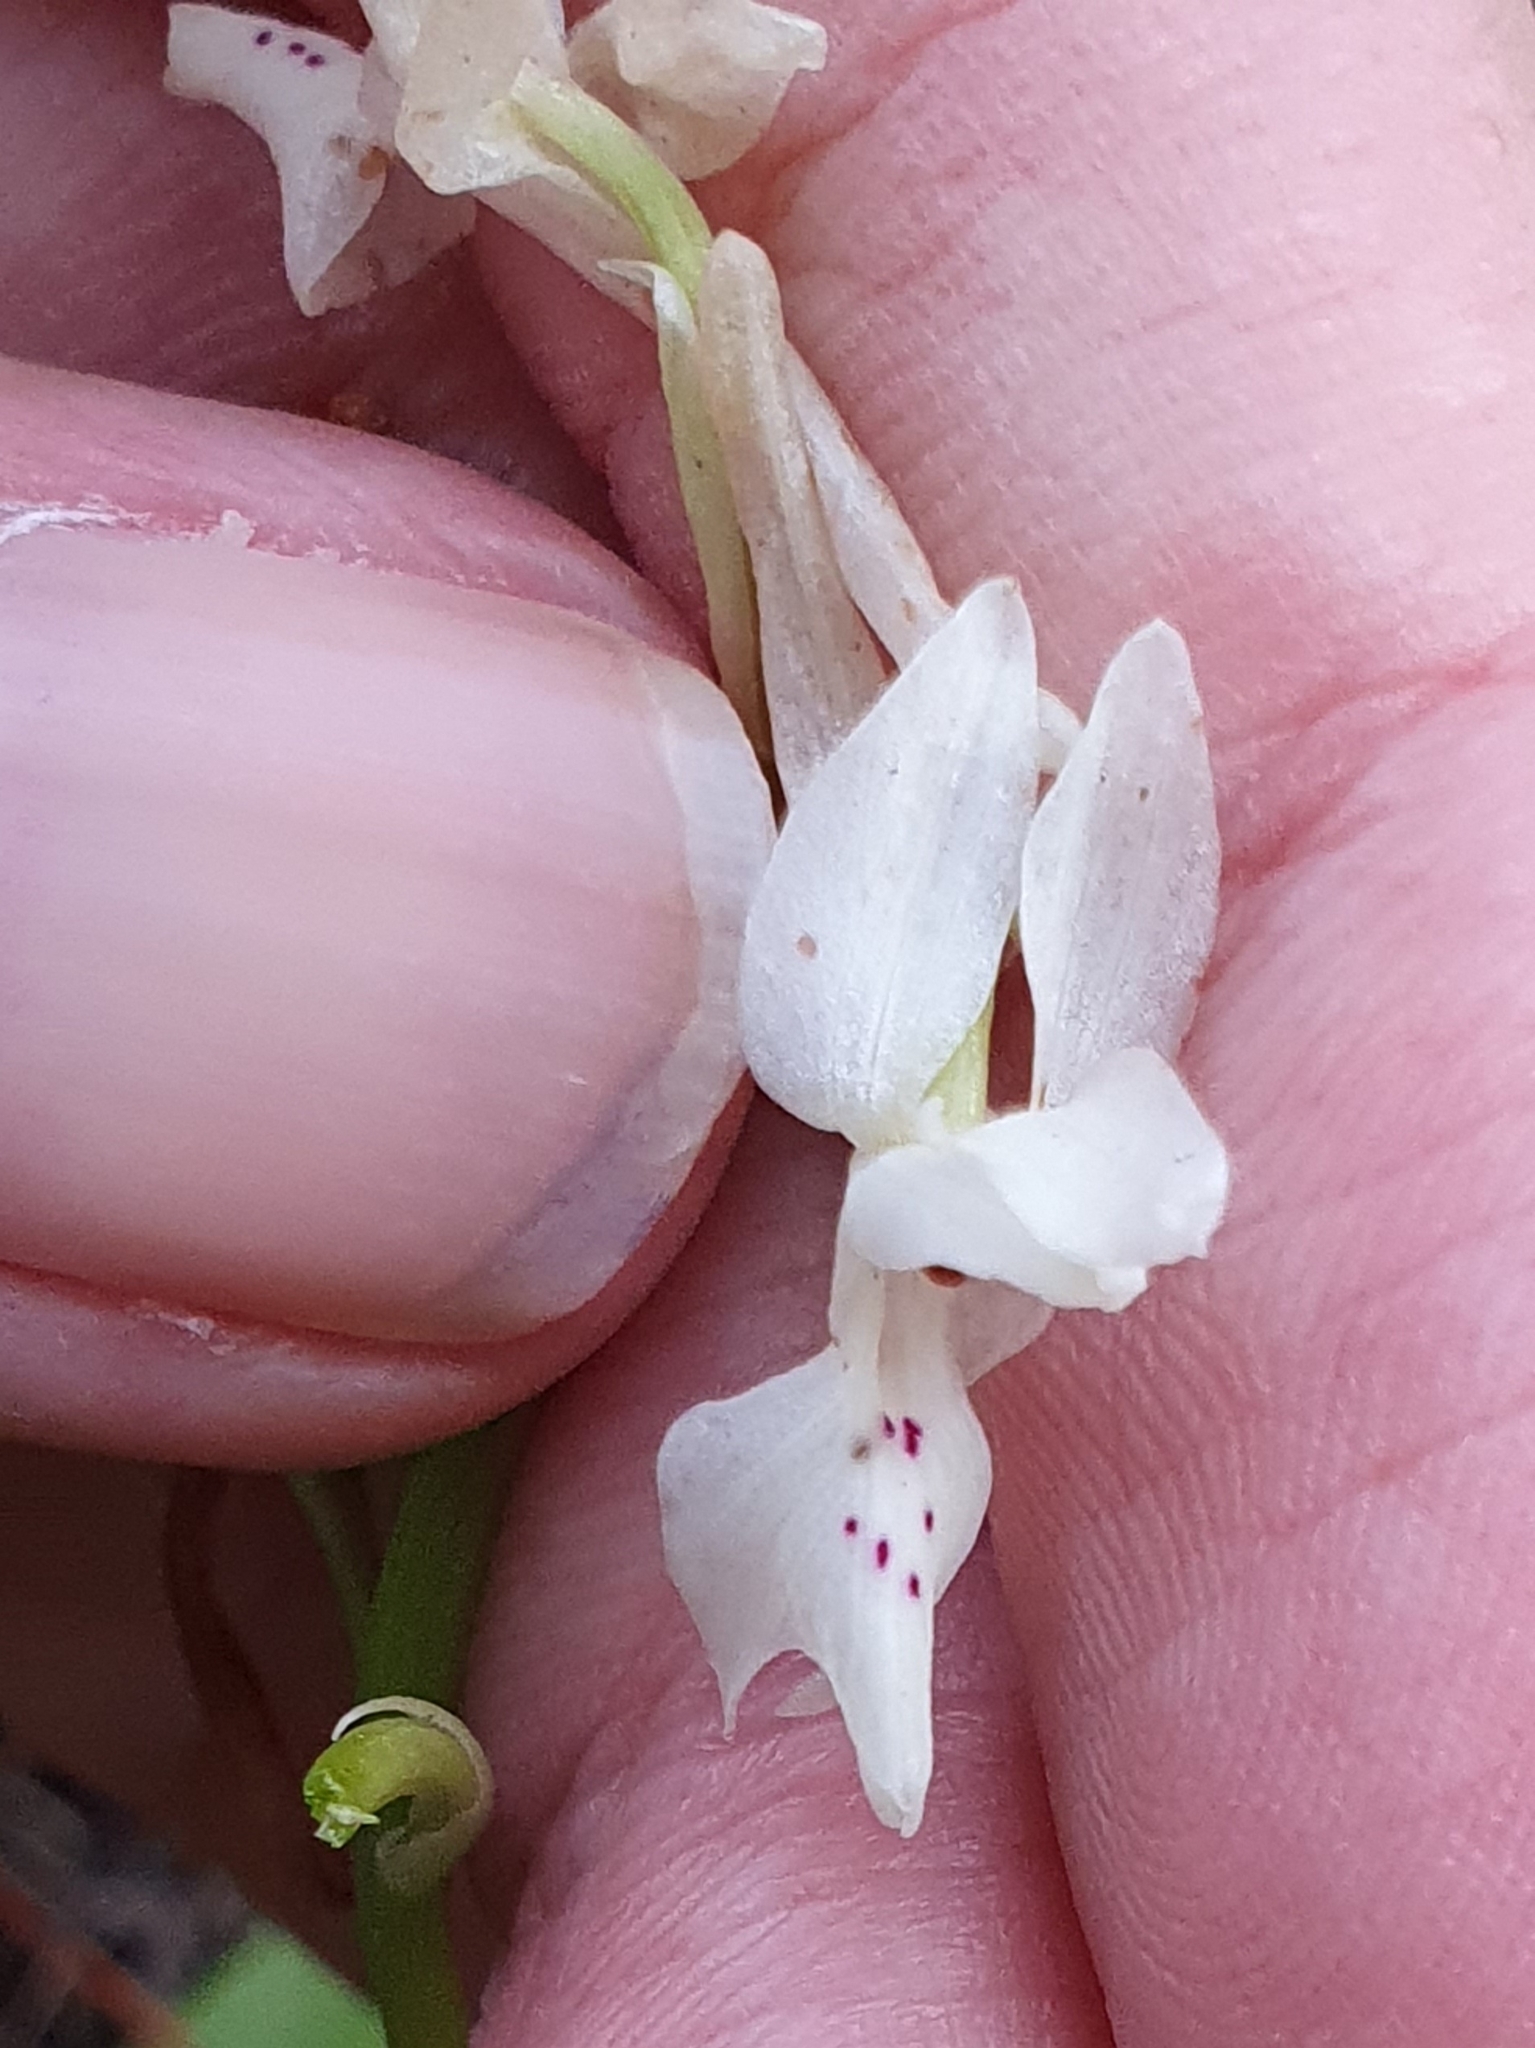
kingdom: Plantae
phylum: Tracheophyta
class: Liliopsida
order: Asparagales
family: Orchidaceae
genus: Orchis
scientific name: Orchis laeta
